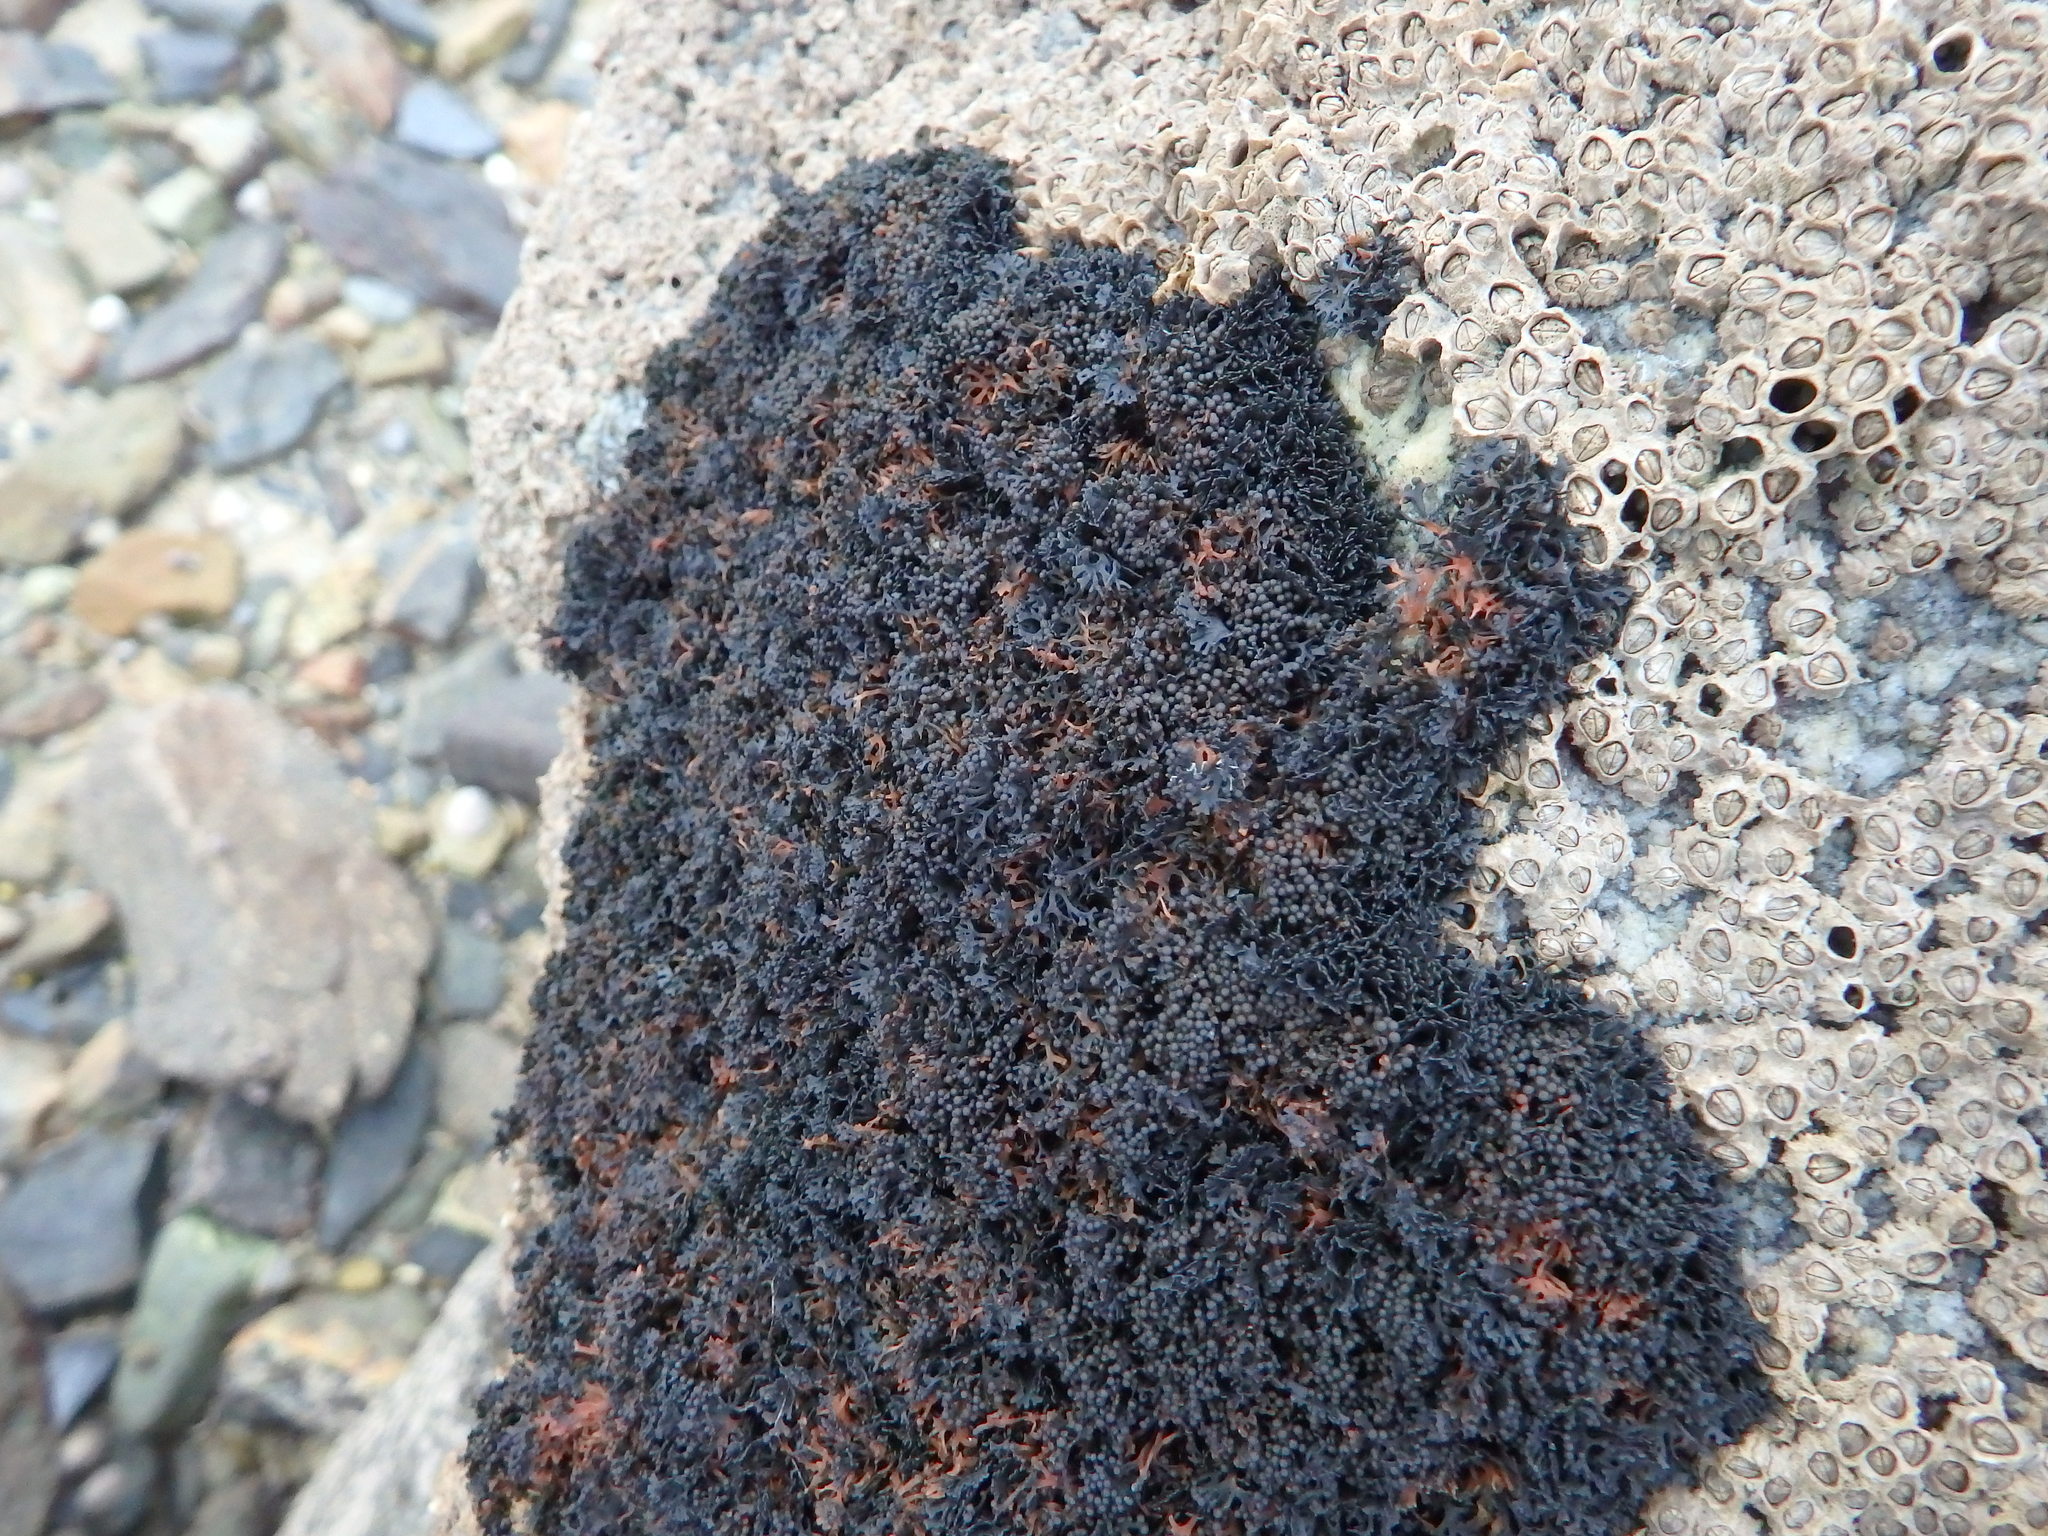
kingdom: Fungi
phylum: Ascomycota
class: Lichinomycetes
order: Lichinales
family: Lichinaceae
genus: Lichina
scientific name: Lichina pygmaea
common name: Black lichen
